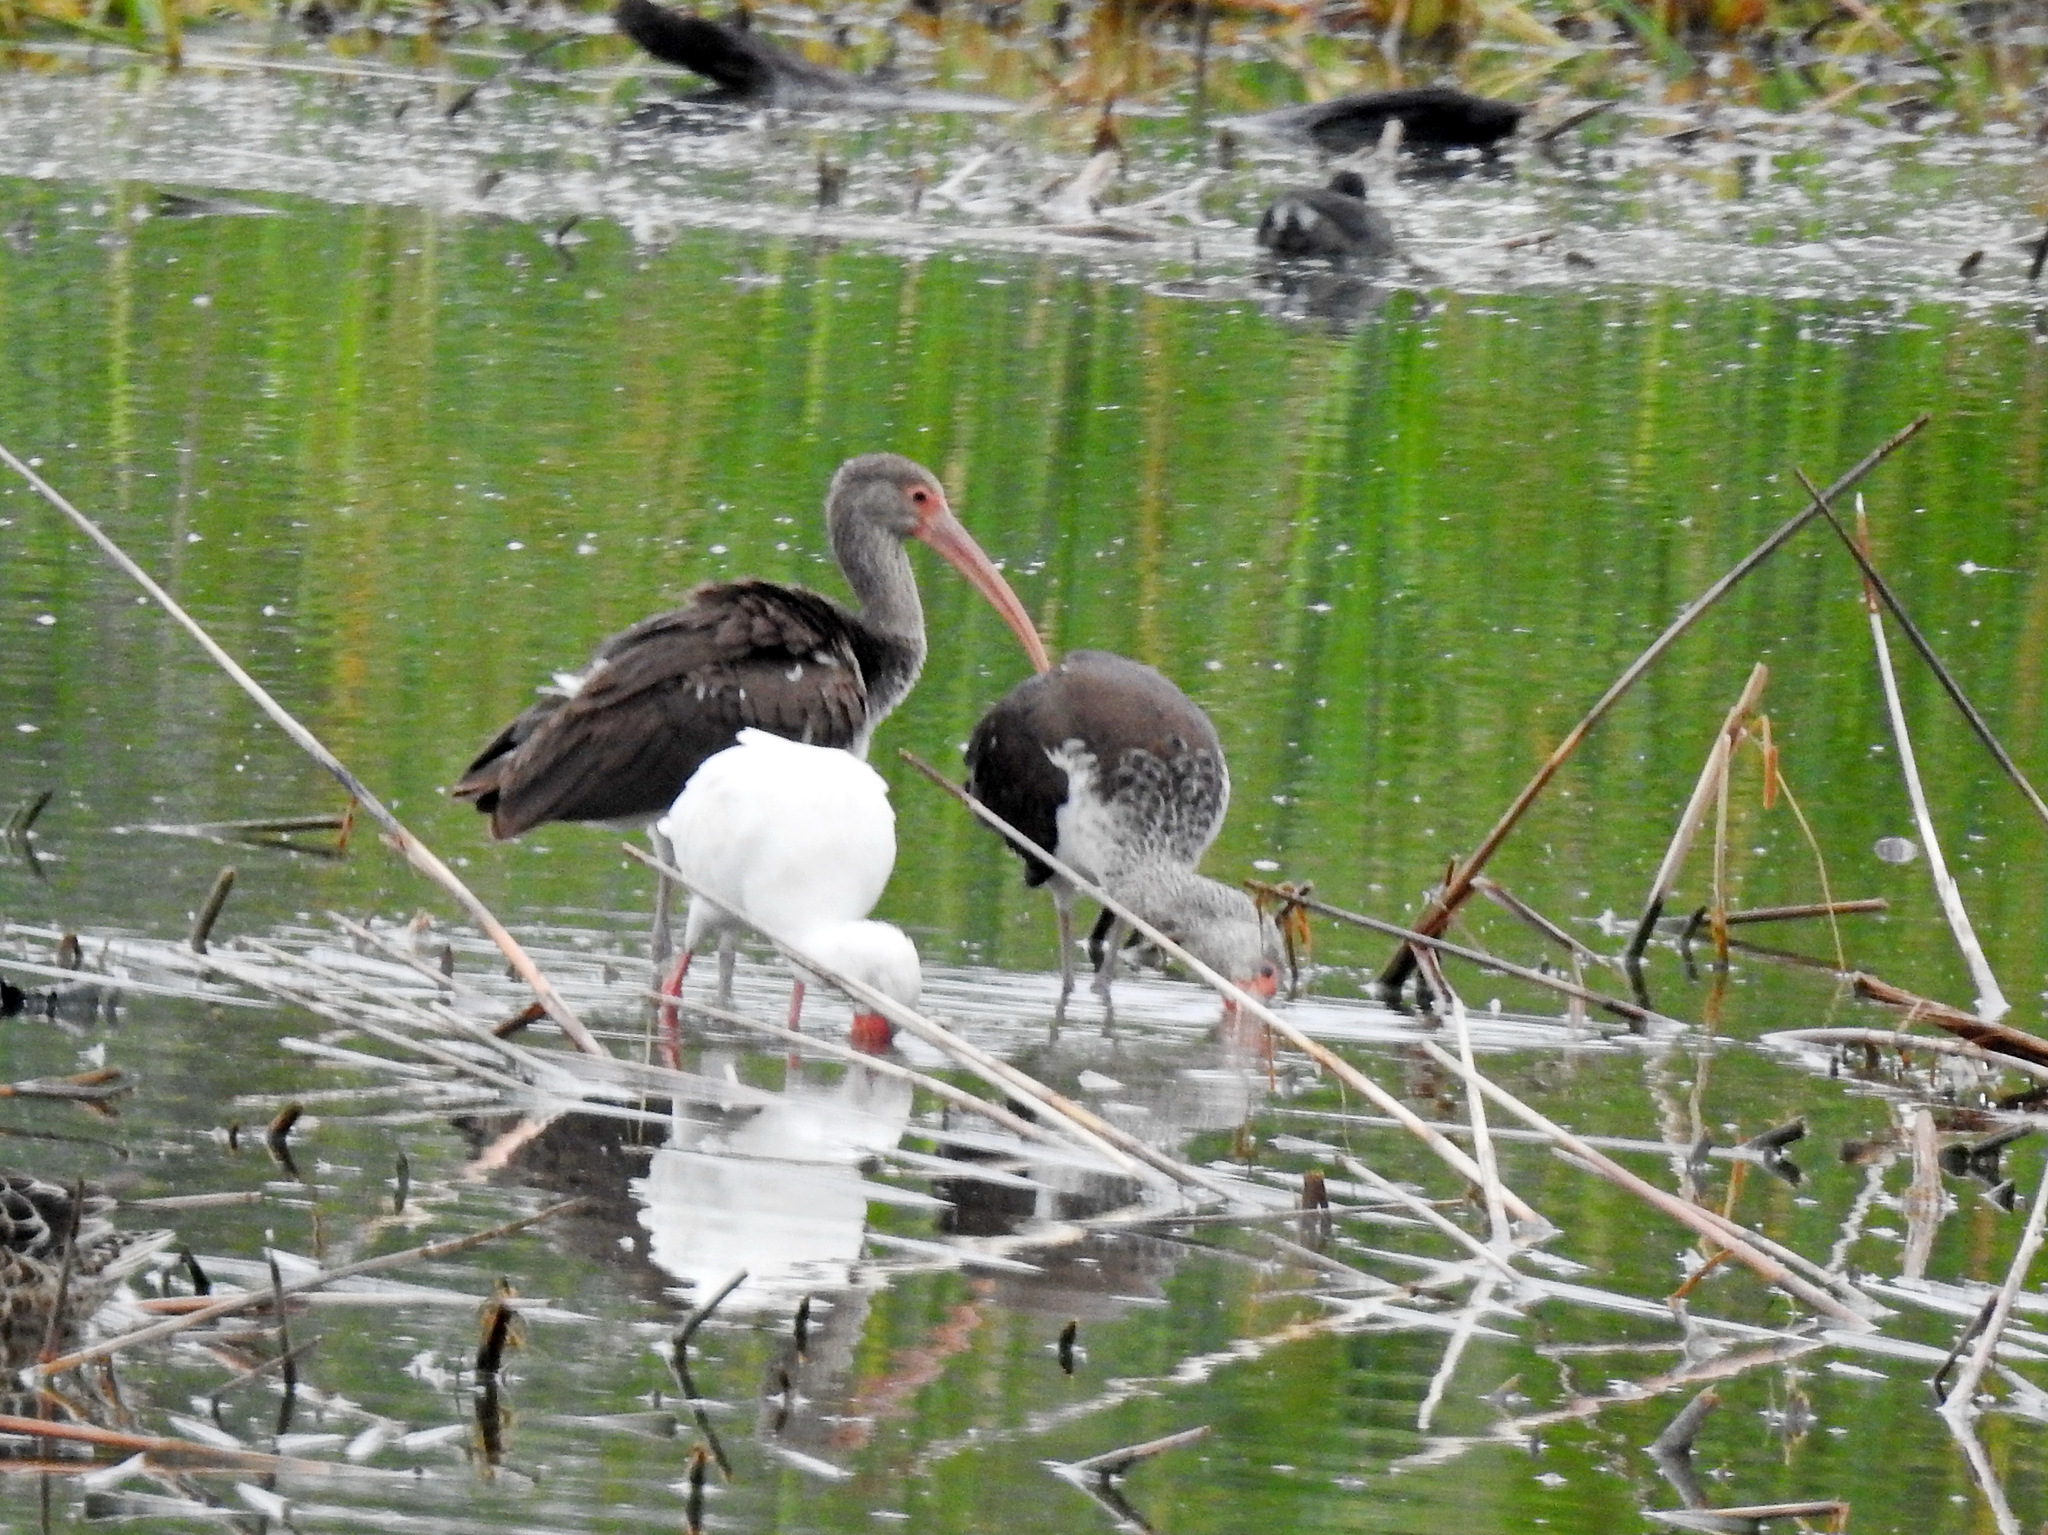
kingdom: Animalia
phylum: Chordata
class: Aves
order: Pelecaniformes
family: Threskiornithidae
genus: Eudocimus
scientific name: Eudocimus albus
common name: White ibis
